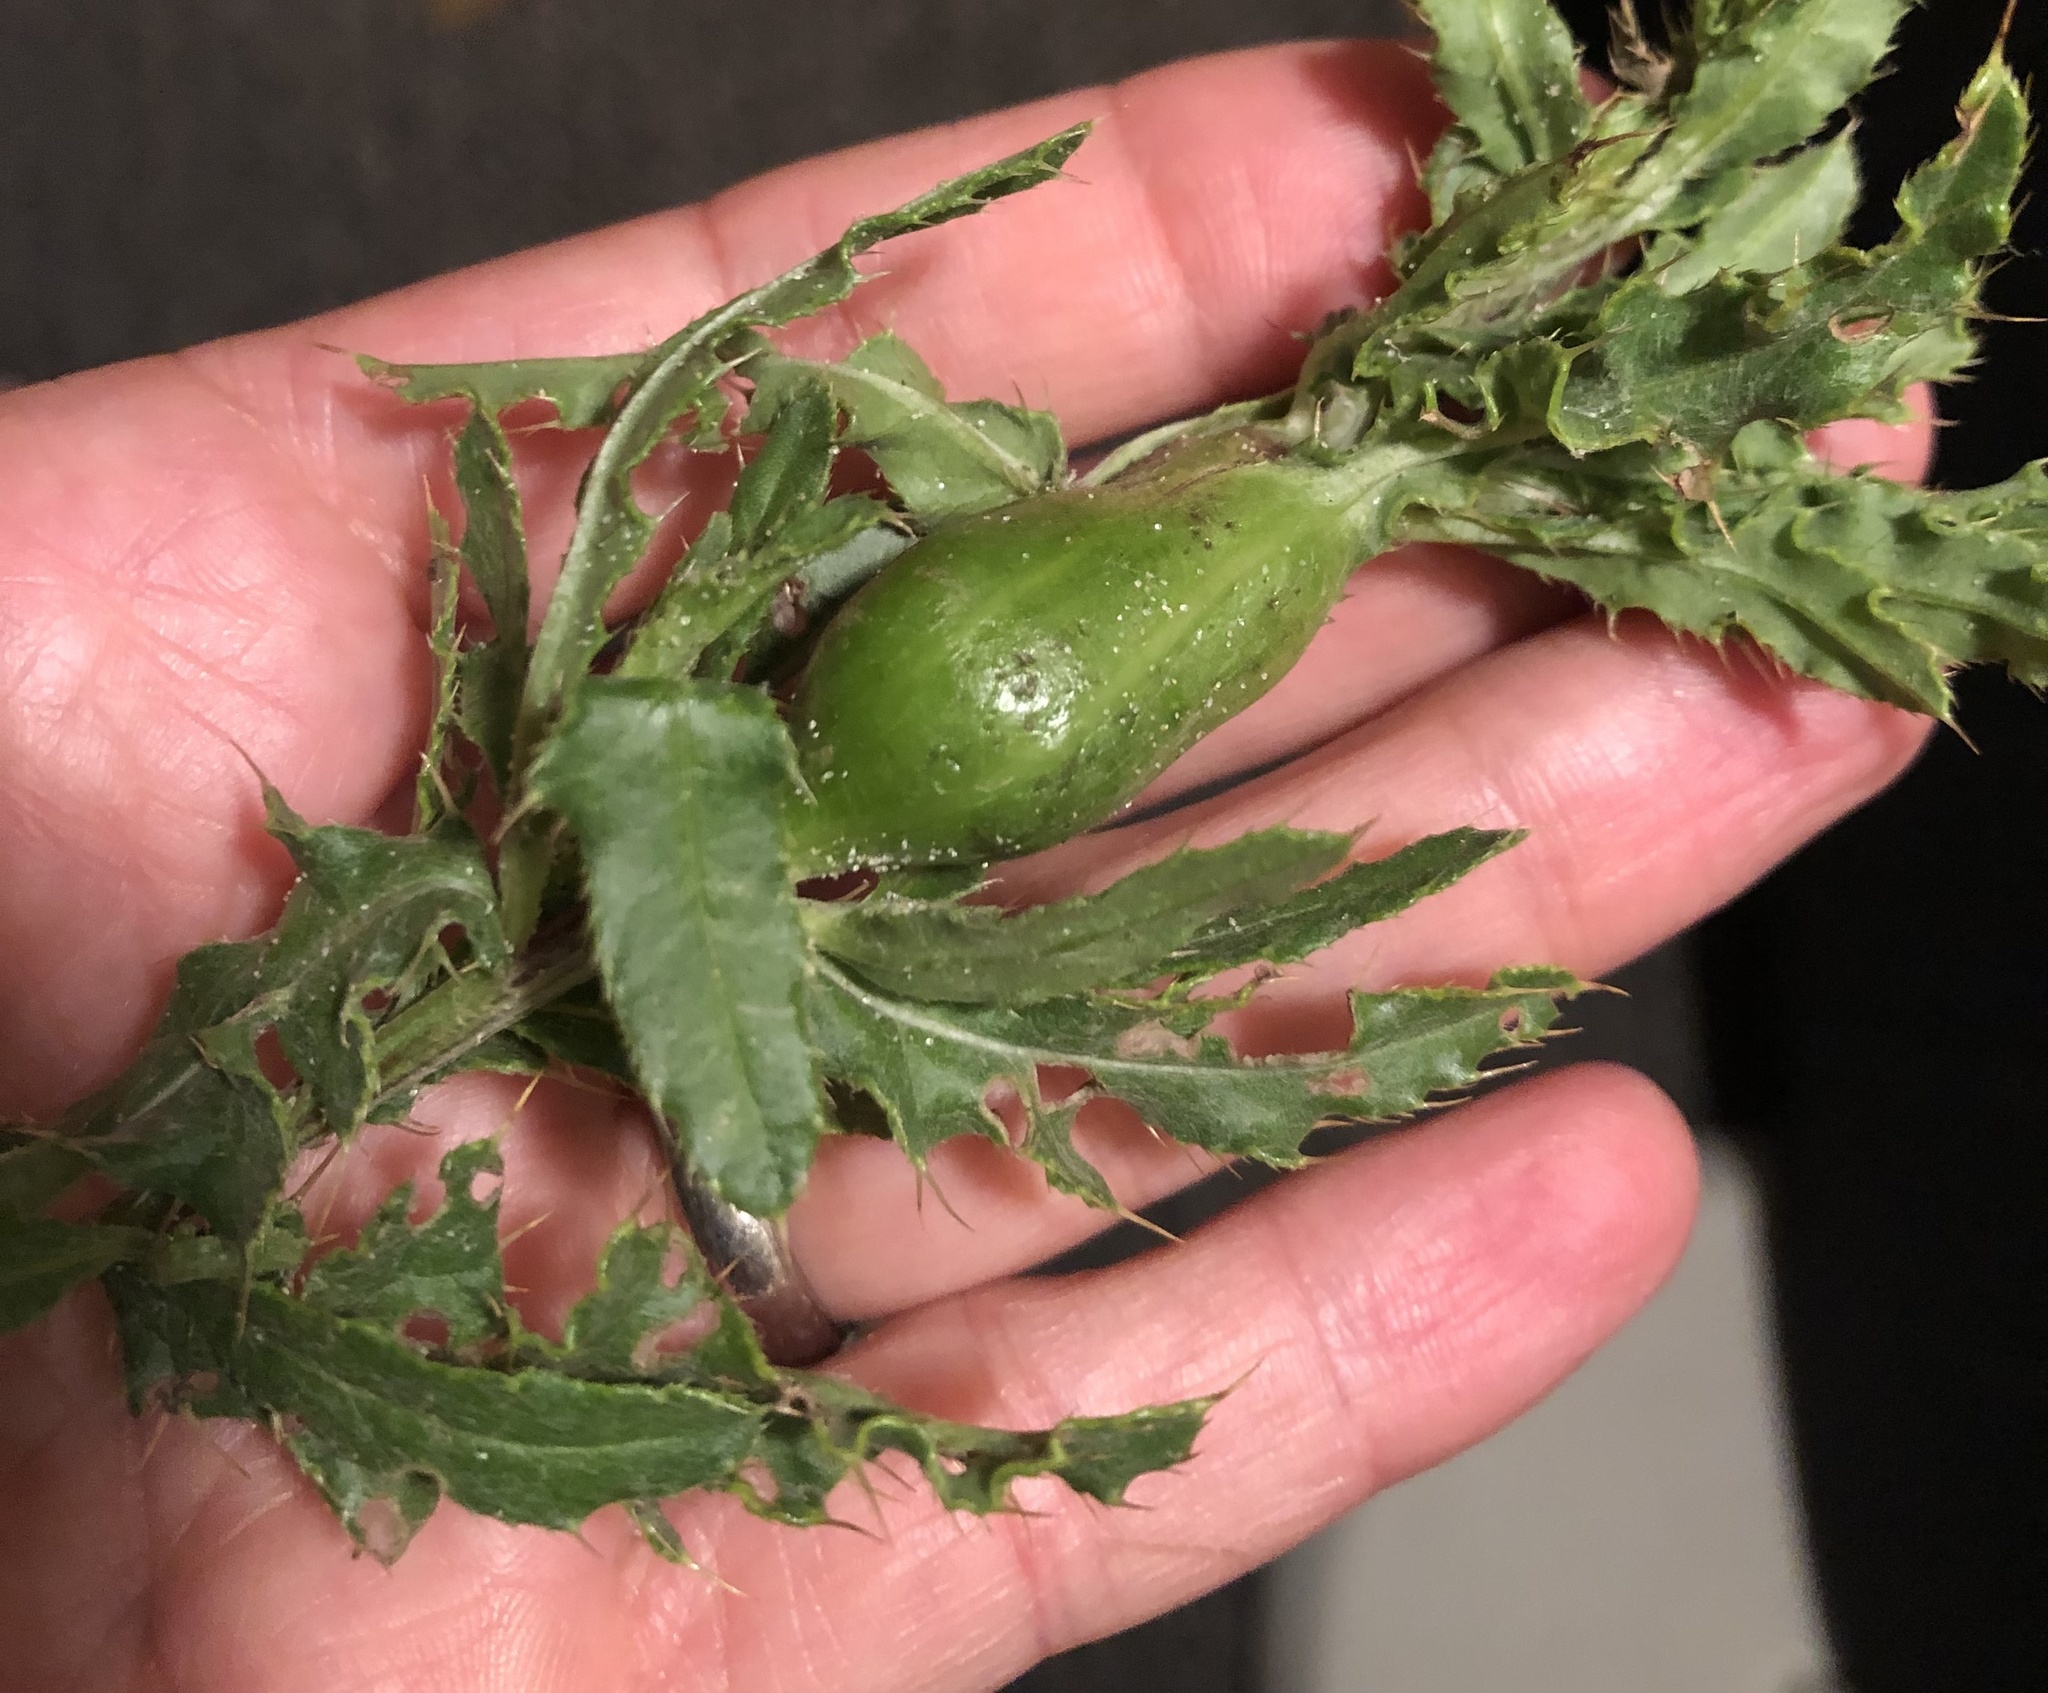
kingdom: Animalia
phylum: Arthropoda
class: Insecta
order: Diptera
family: Tephritidae
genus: Urophora
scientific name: Urophora cardui
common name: Fruit fly
